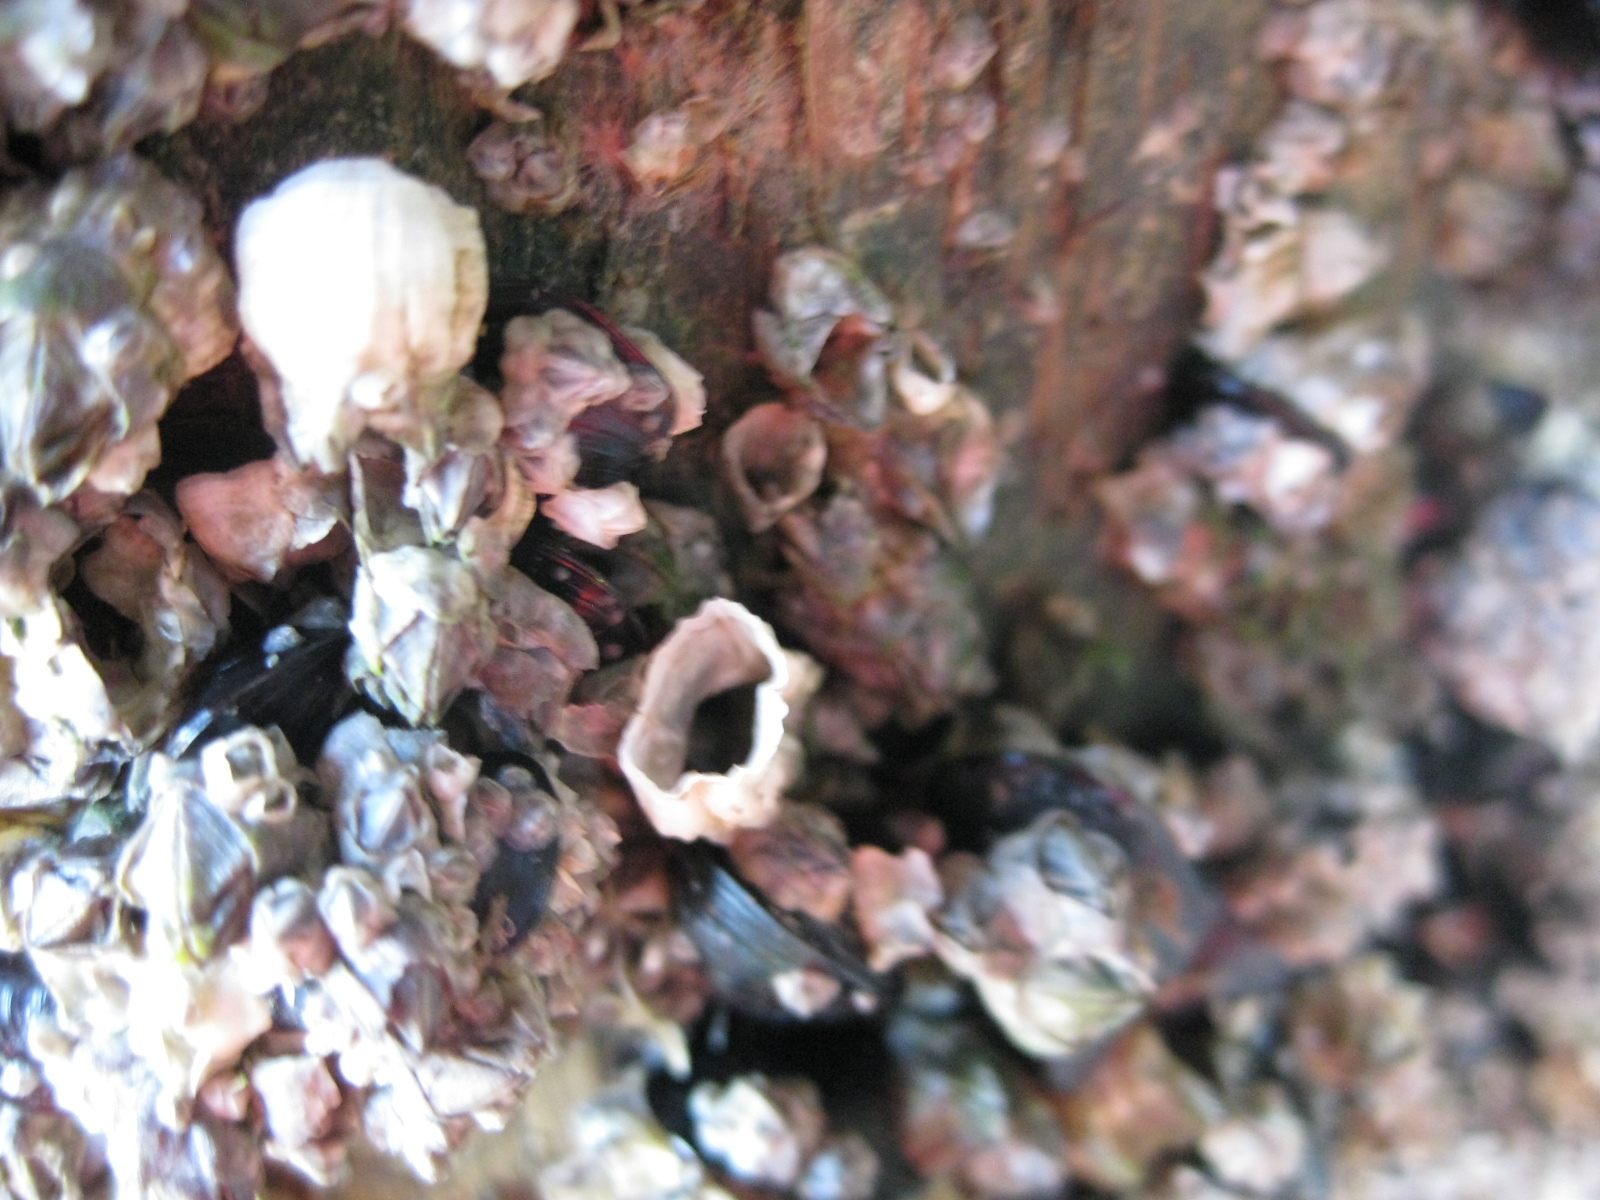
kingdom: Animalia
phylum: Arthropoda
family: Elminiidae
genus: Austrominius
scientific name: Austrominius modestus
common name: Australasian barnacle
